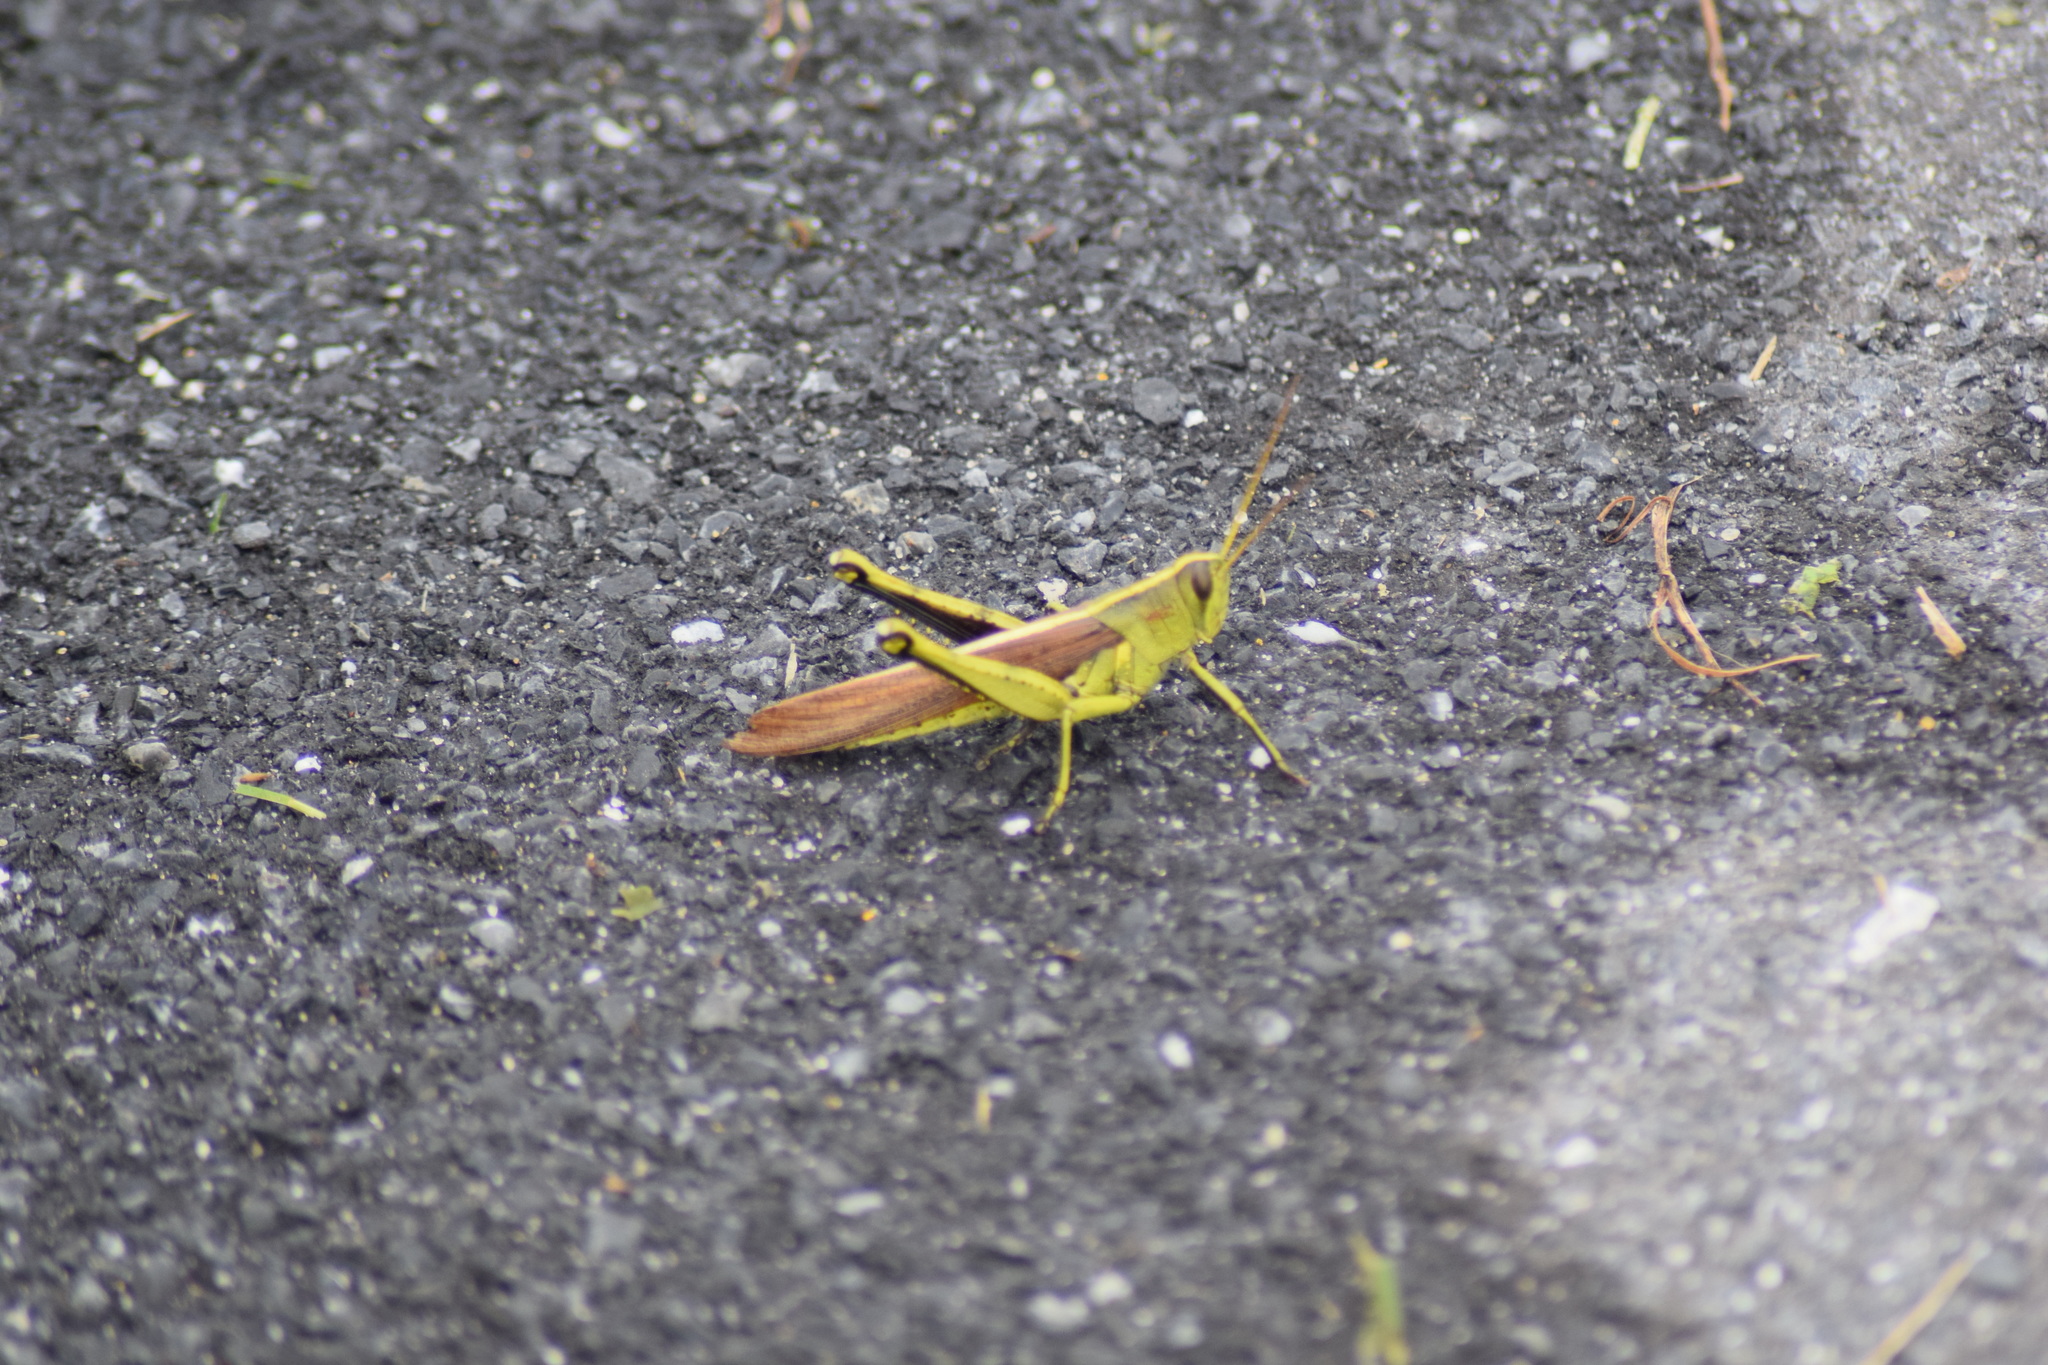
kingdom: Animalia
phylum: Arthropoda
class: Insecta
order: Orthoptera
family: Acrididae
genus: Schistocerca
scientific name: Schistocerca obscura
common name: Obscure bird grasshopper
